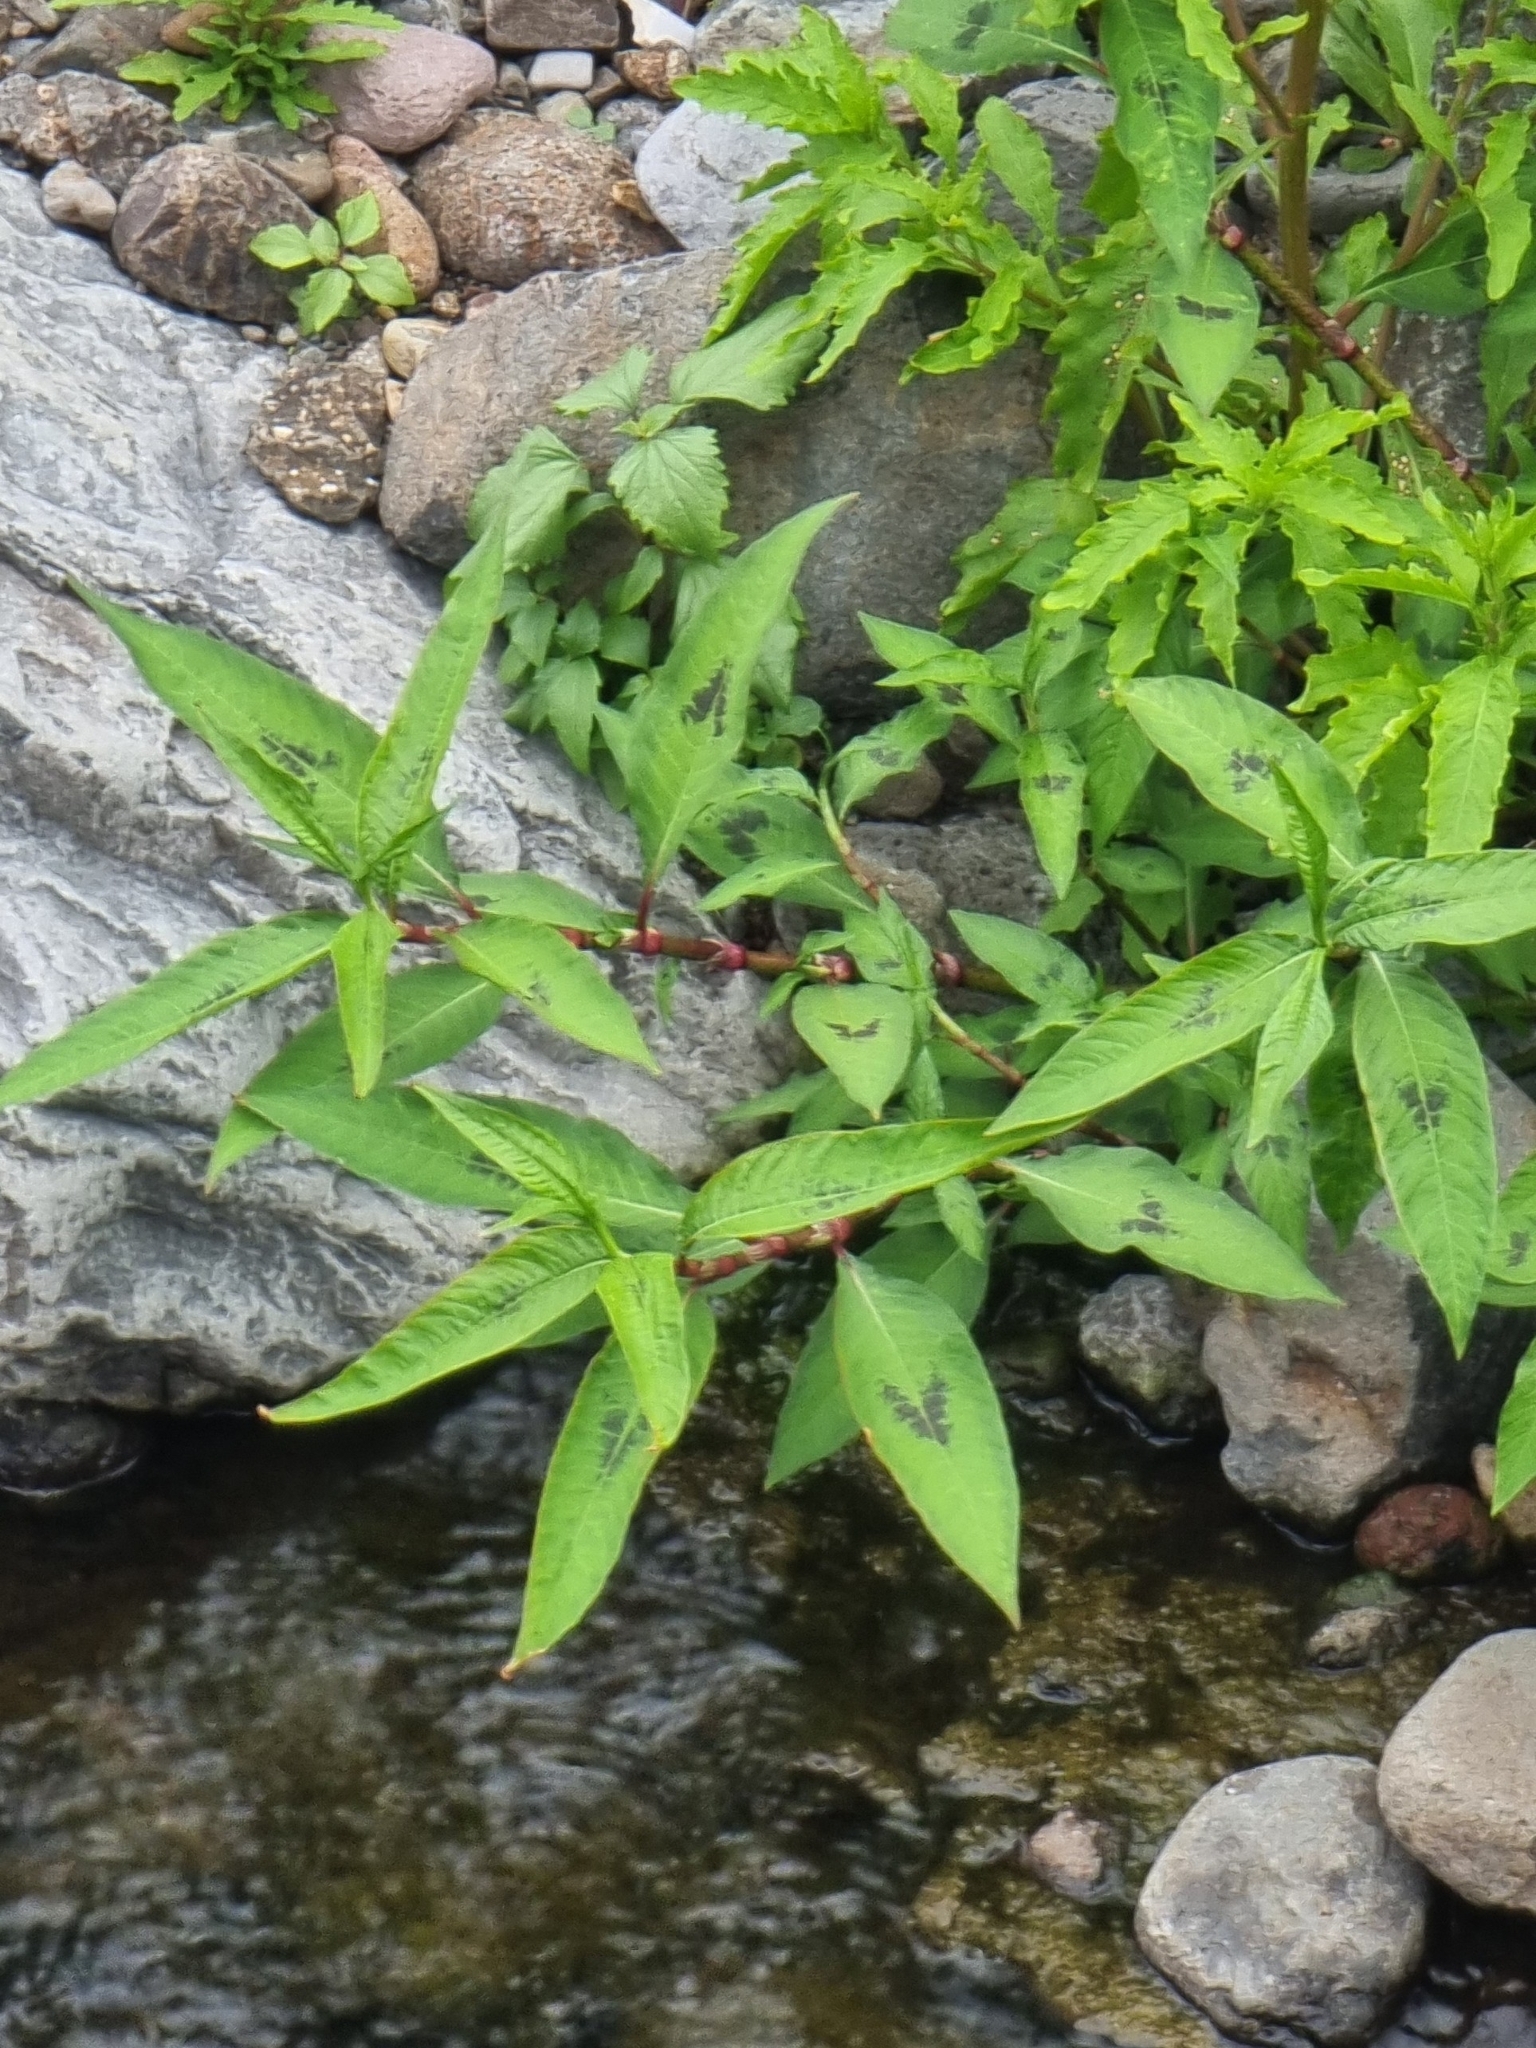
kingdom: Plantae
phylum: Tracheophyta
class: Magnoliopsida
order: Caryophyllales
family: Polygonaceae
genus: Persicaria
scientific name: Persicaria maculosa
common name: Redshank
